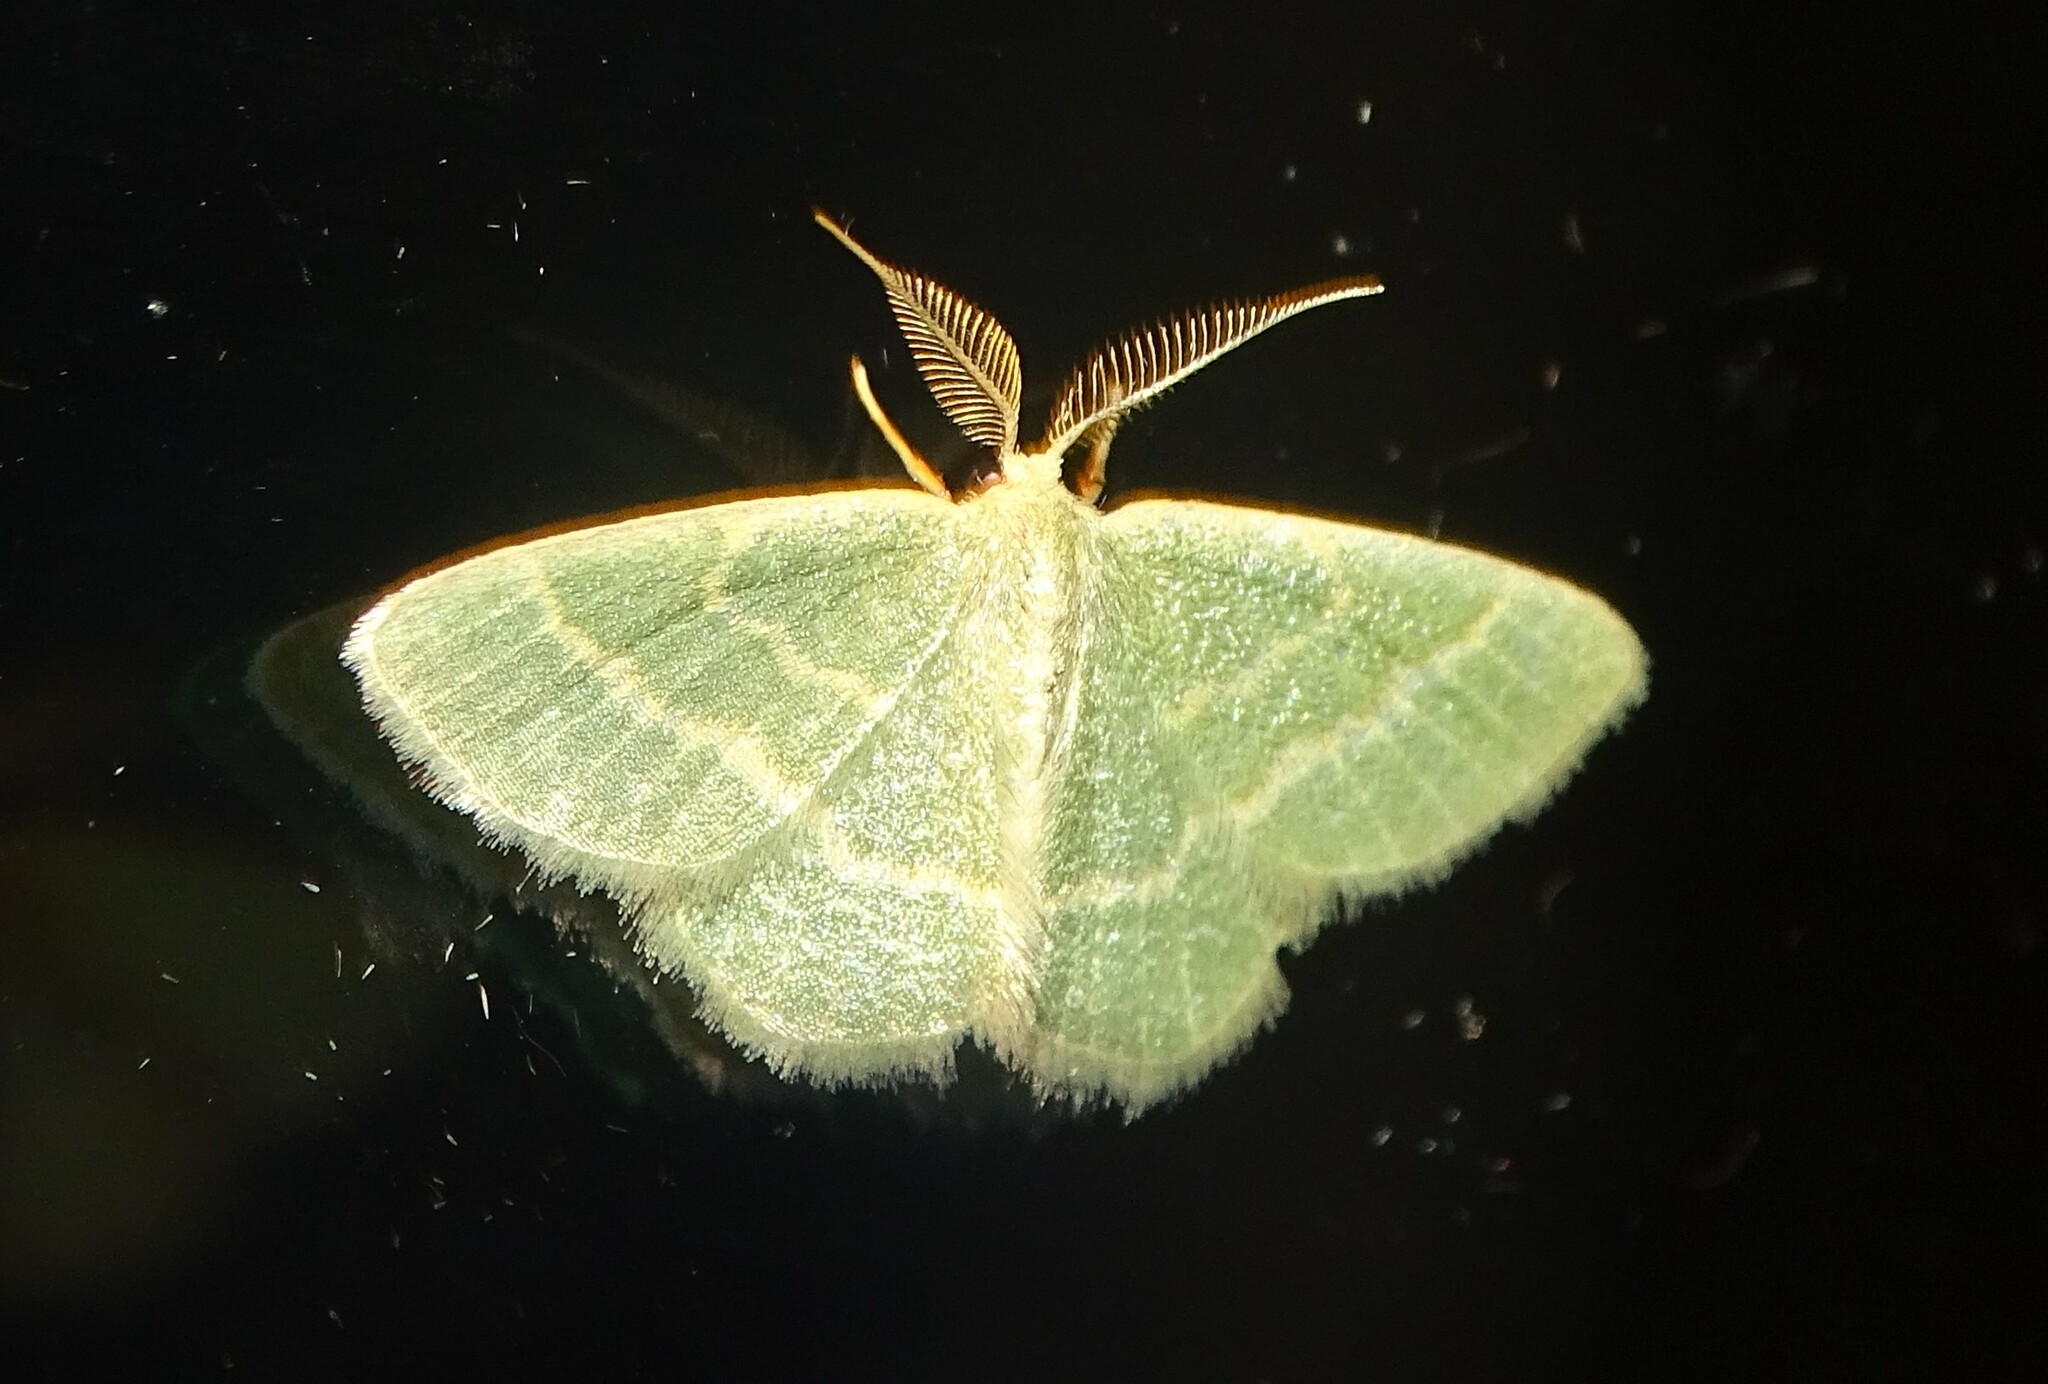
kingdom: Animalia
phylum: Arthropoda
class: Insecta
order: Lepidoptera
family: Geometridae
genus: Chlorochlamys
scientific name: Chlorochlamys chloroleucaria
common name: Blackberry looper
